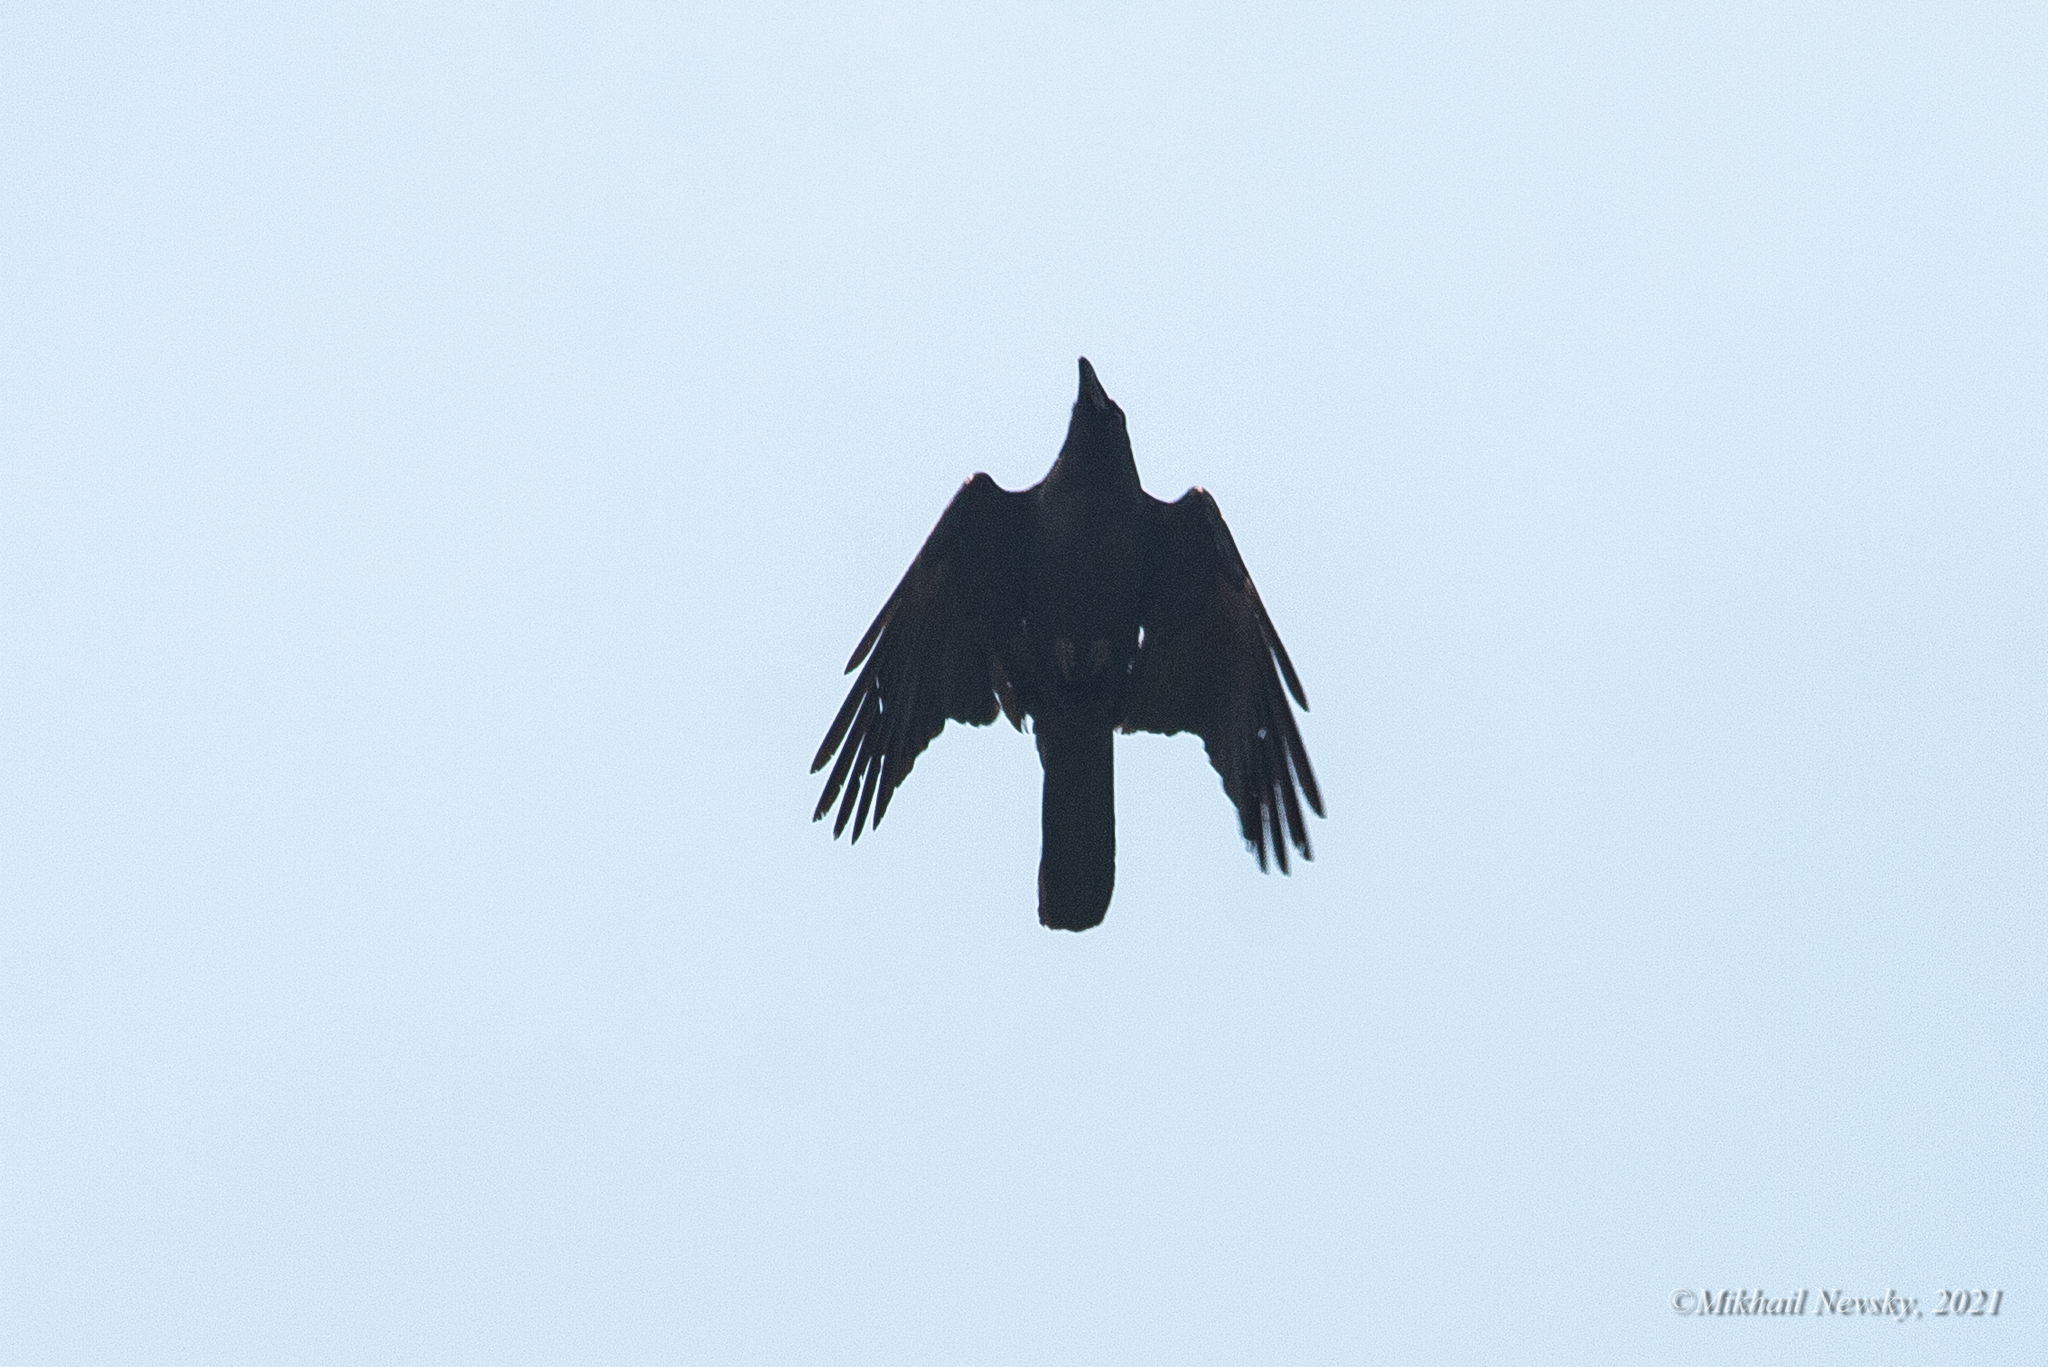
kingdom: Animalia
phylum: Chordata
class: Aves
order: Passeriformes
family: Corvidae
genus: Corvus
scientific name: Corvus corone
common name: Carrion crow
